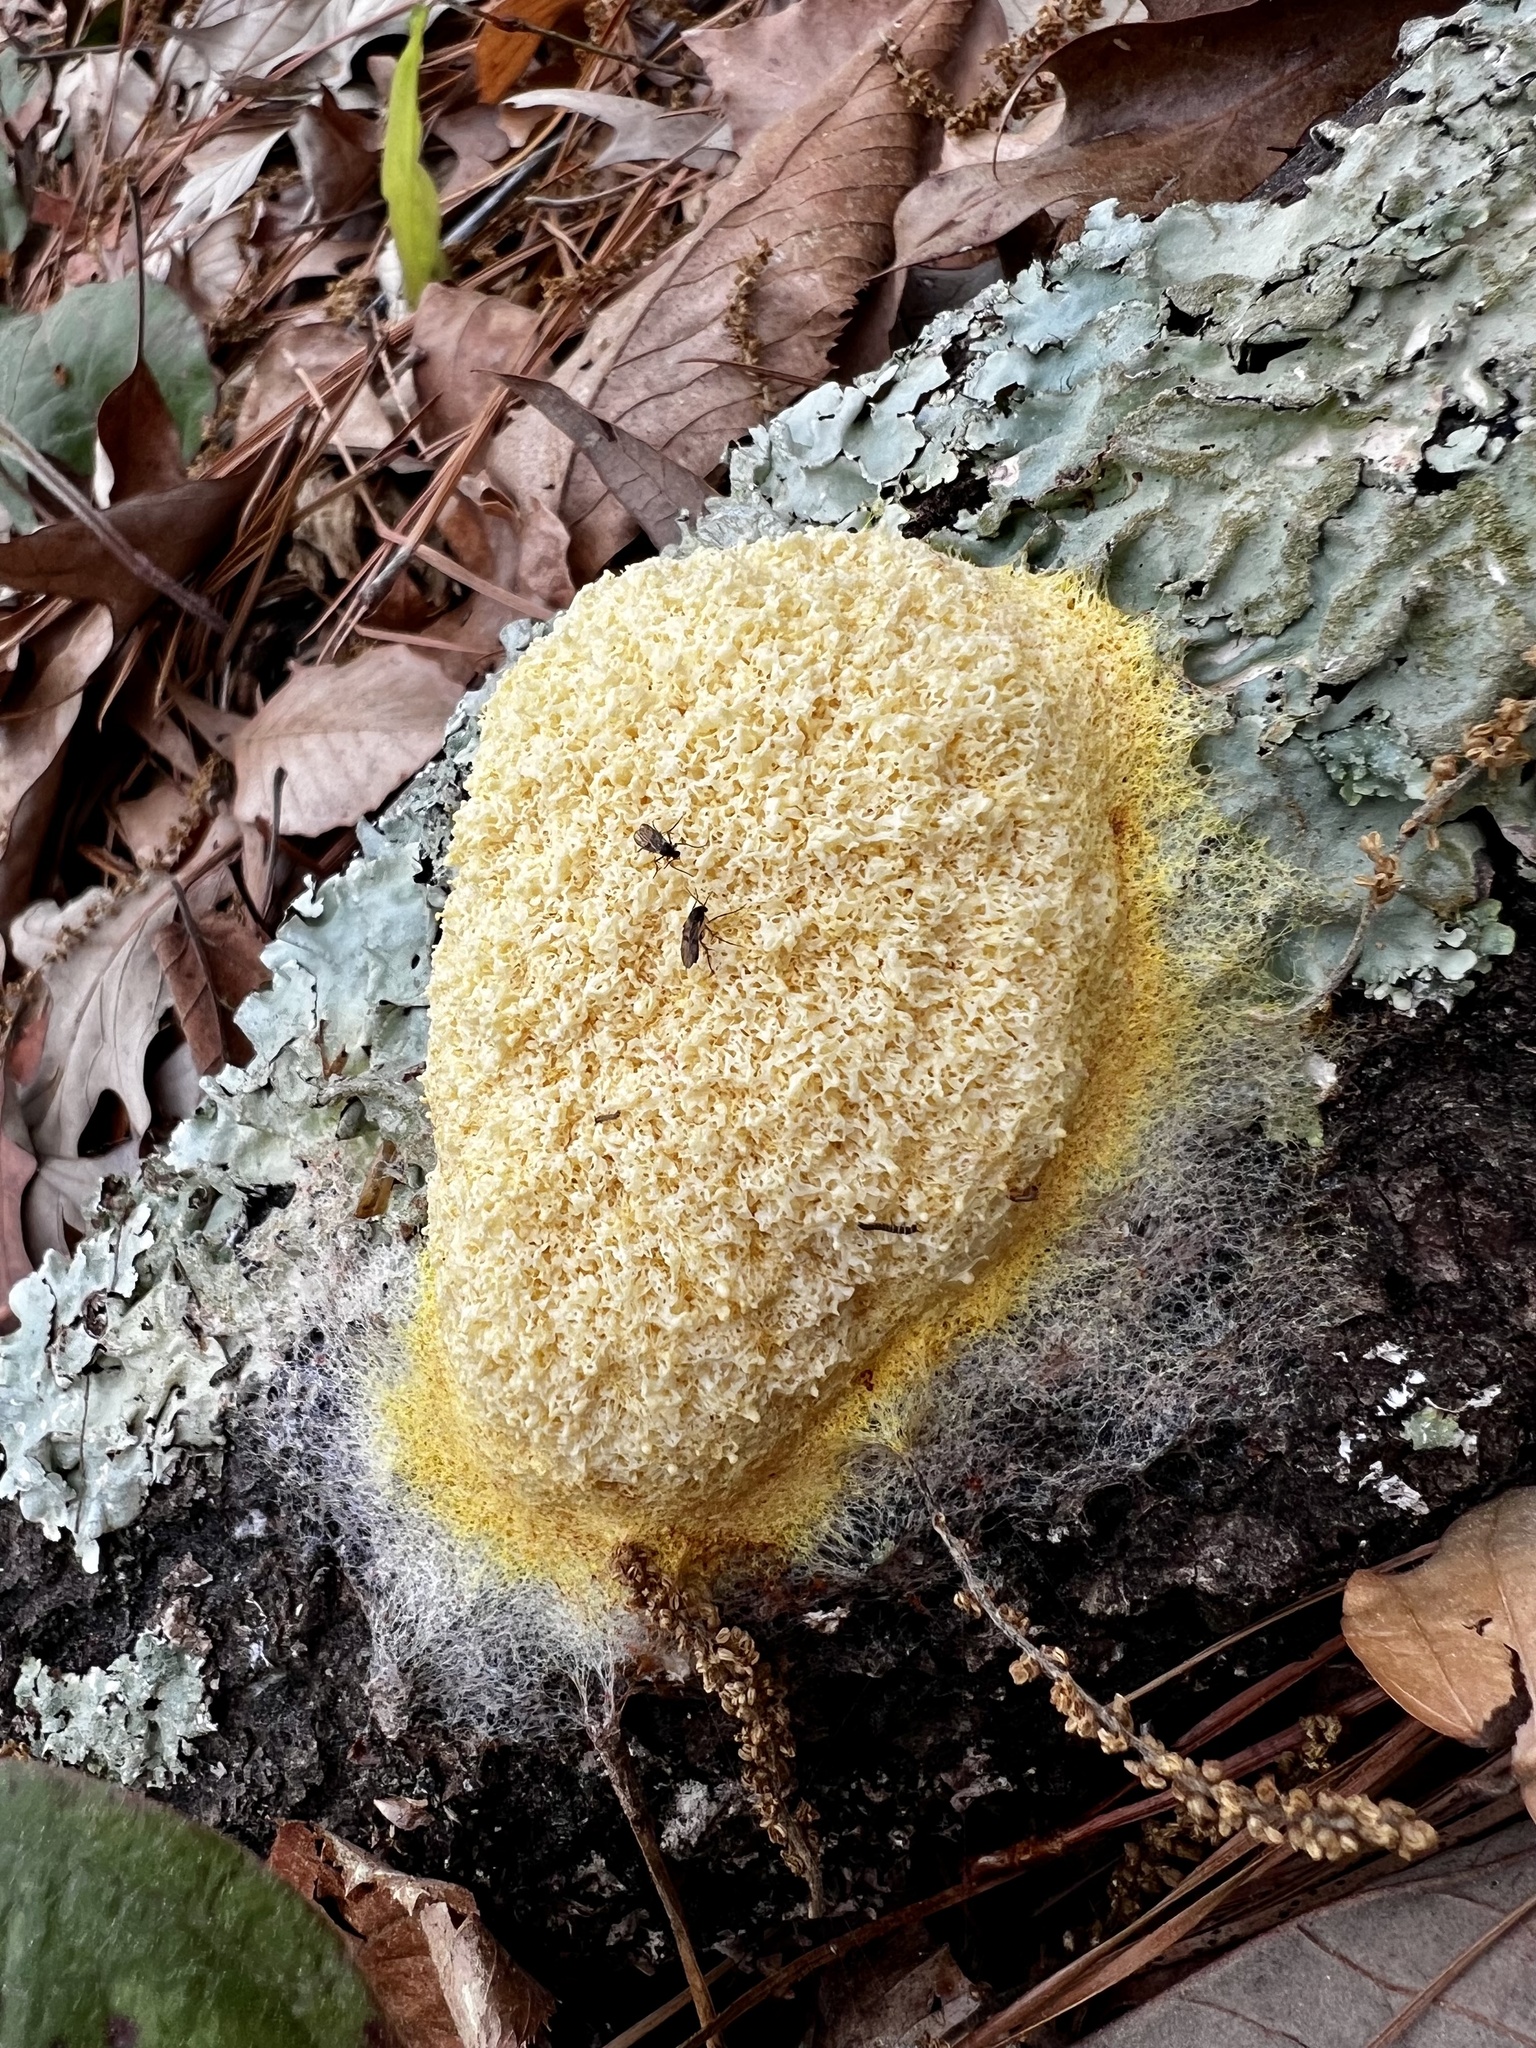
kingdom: Protozoa
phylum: Mycetozoa
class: Myxomycetes
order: Physarales
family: Physaraceae
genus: Fuligo
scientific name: Fuligo septica
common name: Dog vomit slime mold
